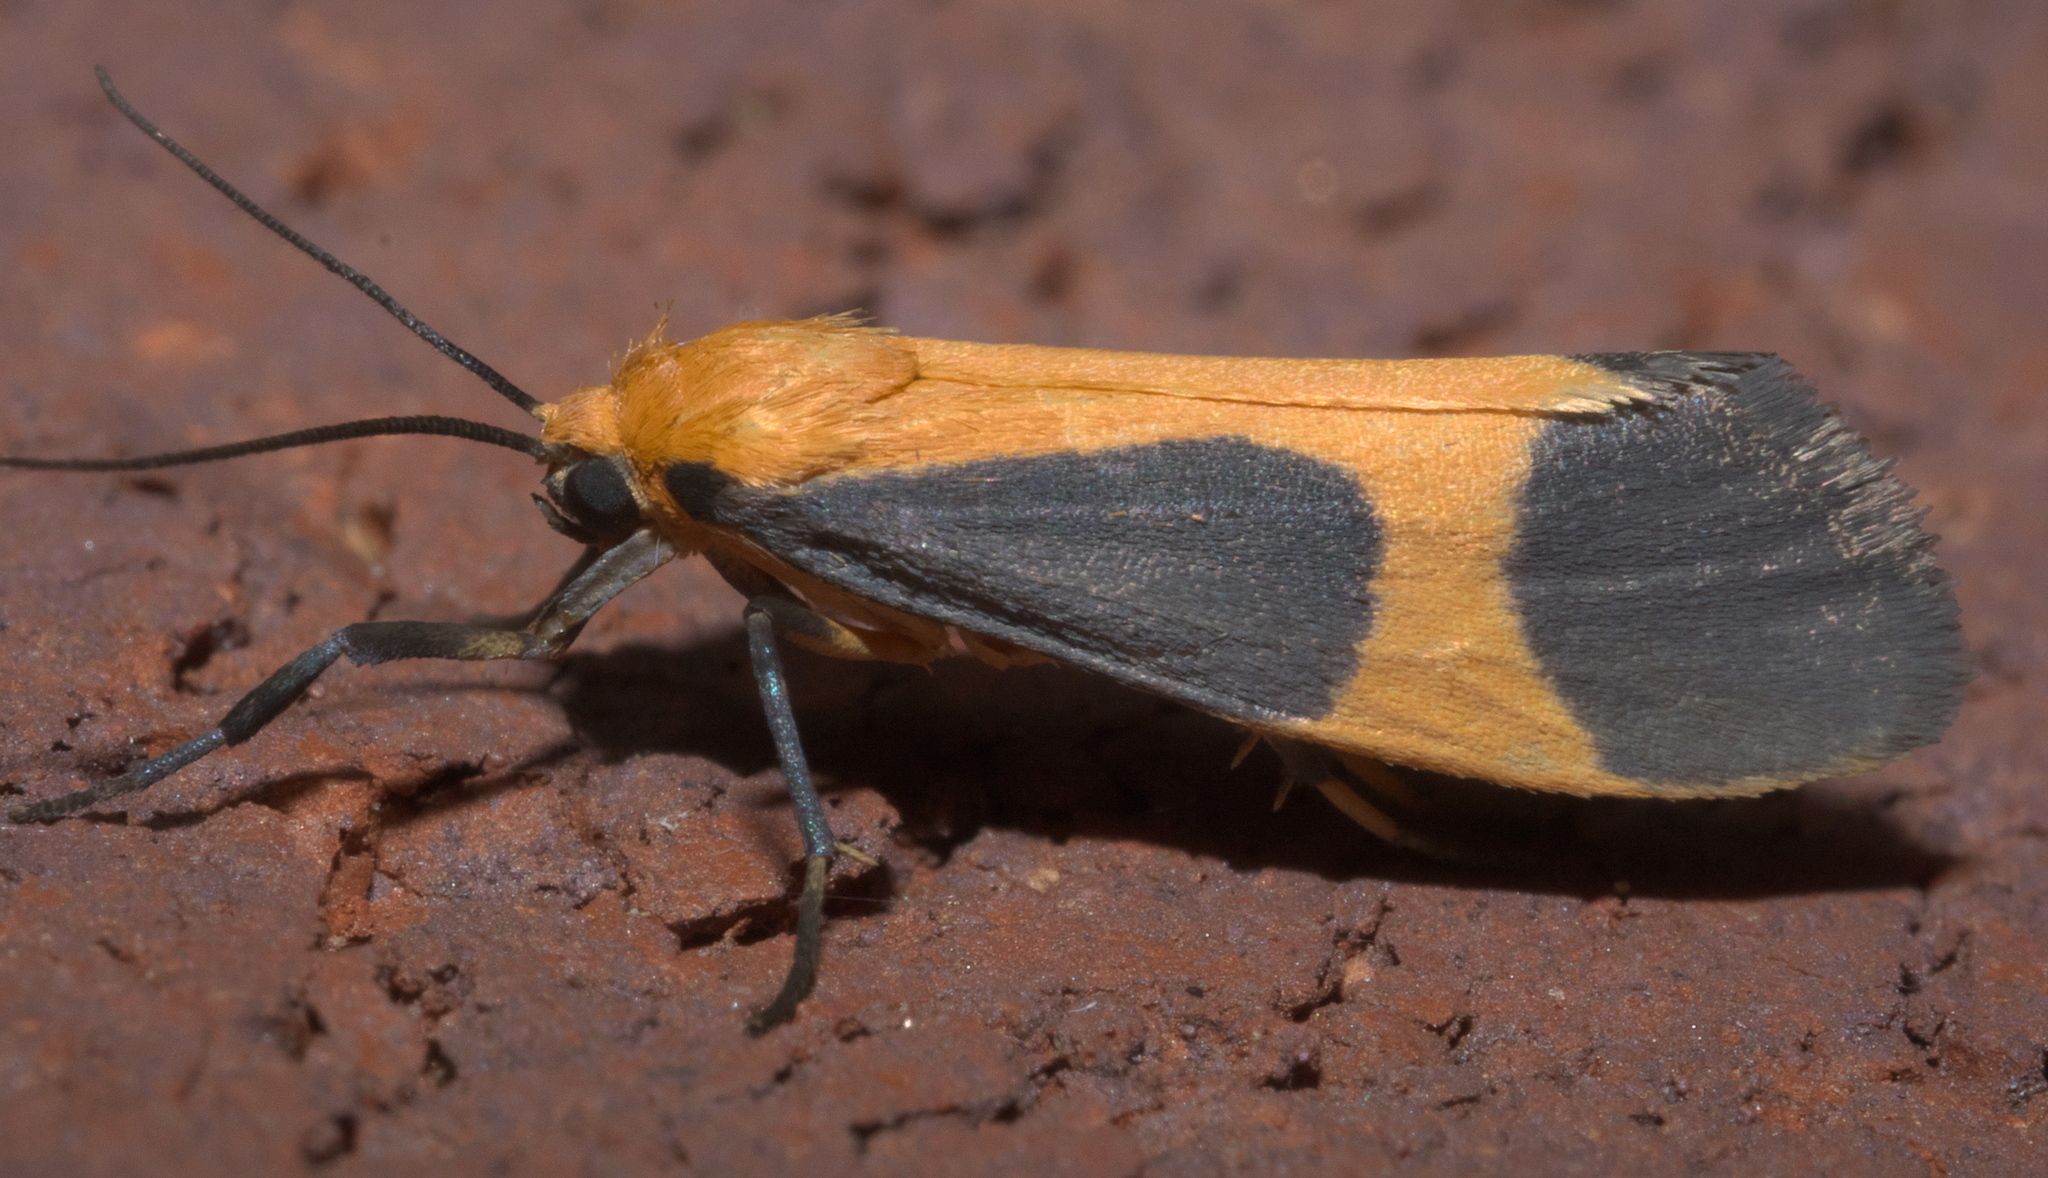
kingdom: Animalia
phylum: Arthropoda
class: Insecta
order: Lepidoptera
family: Erebidae
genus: Cisthene
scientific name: Cisthene picta
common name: Pictured lichen moth
